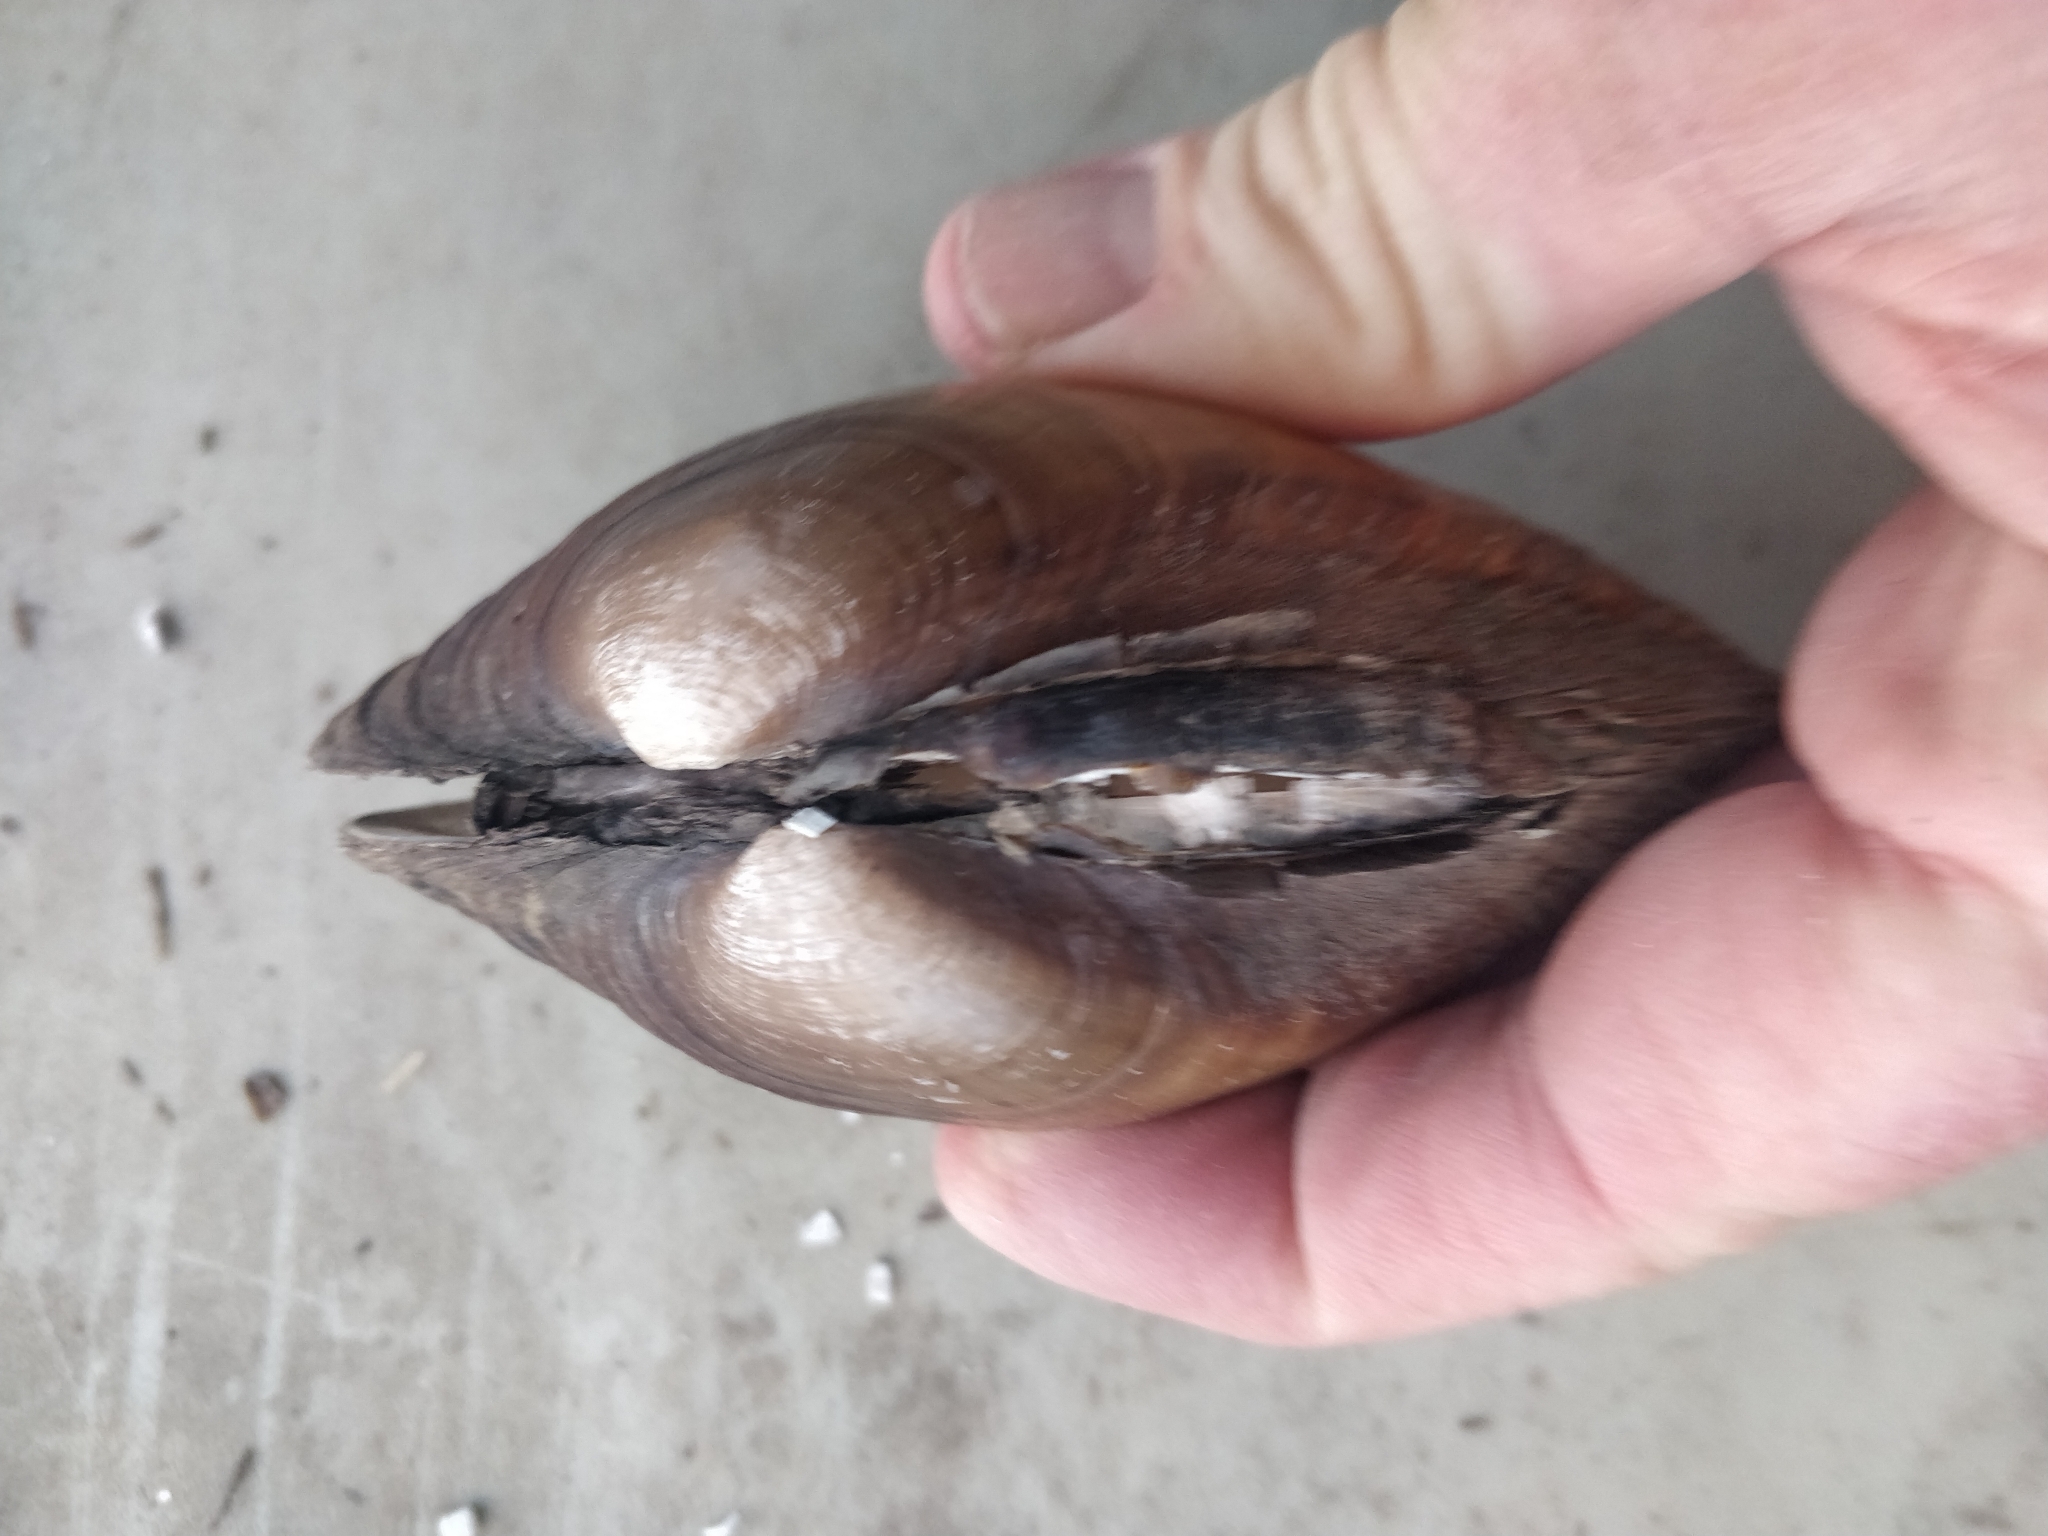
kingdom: Animalia
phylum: Mollusca
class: Bivalvia
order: Unionida
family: Unionidae
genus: Lampsilis
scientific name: Lampsilis cardium
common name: Plain pocketbook
